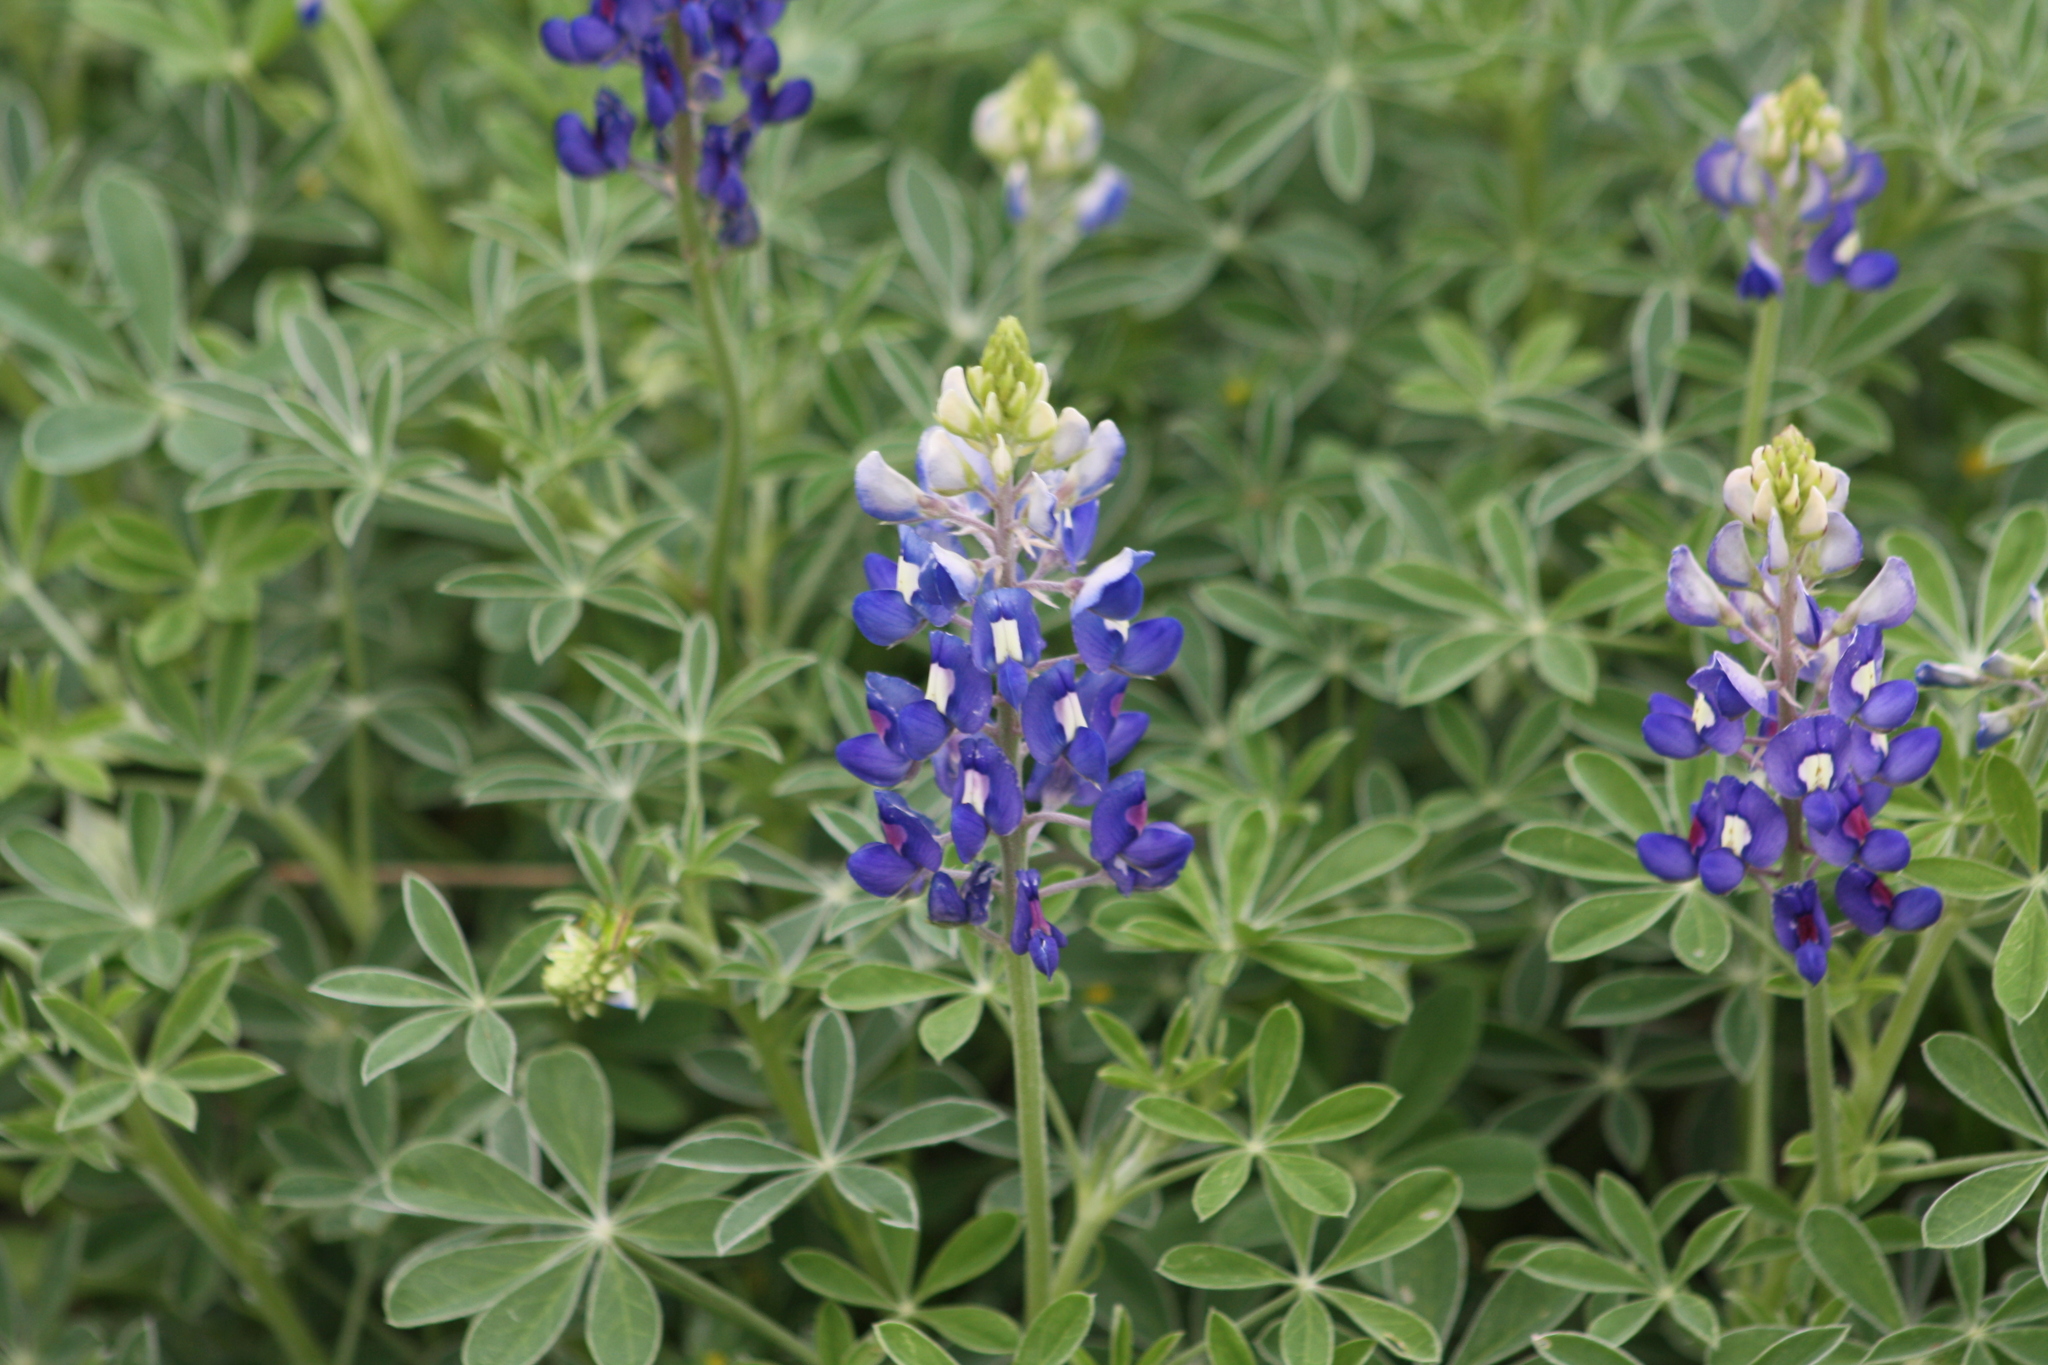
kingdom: Plantae
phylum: Tracheophyta
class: Magnoliopsida
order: Fabales
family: Fabaceae
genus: Lupinus
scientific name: Lupinus texensis
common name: Texas bluebonnet
